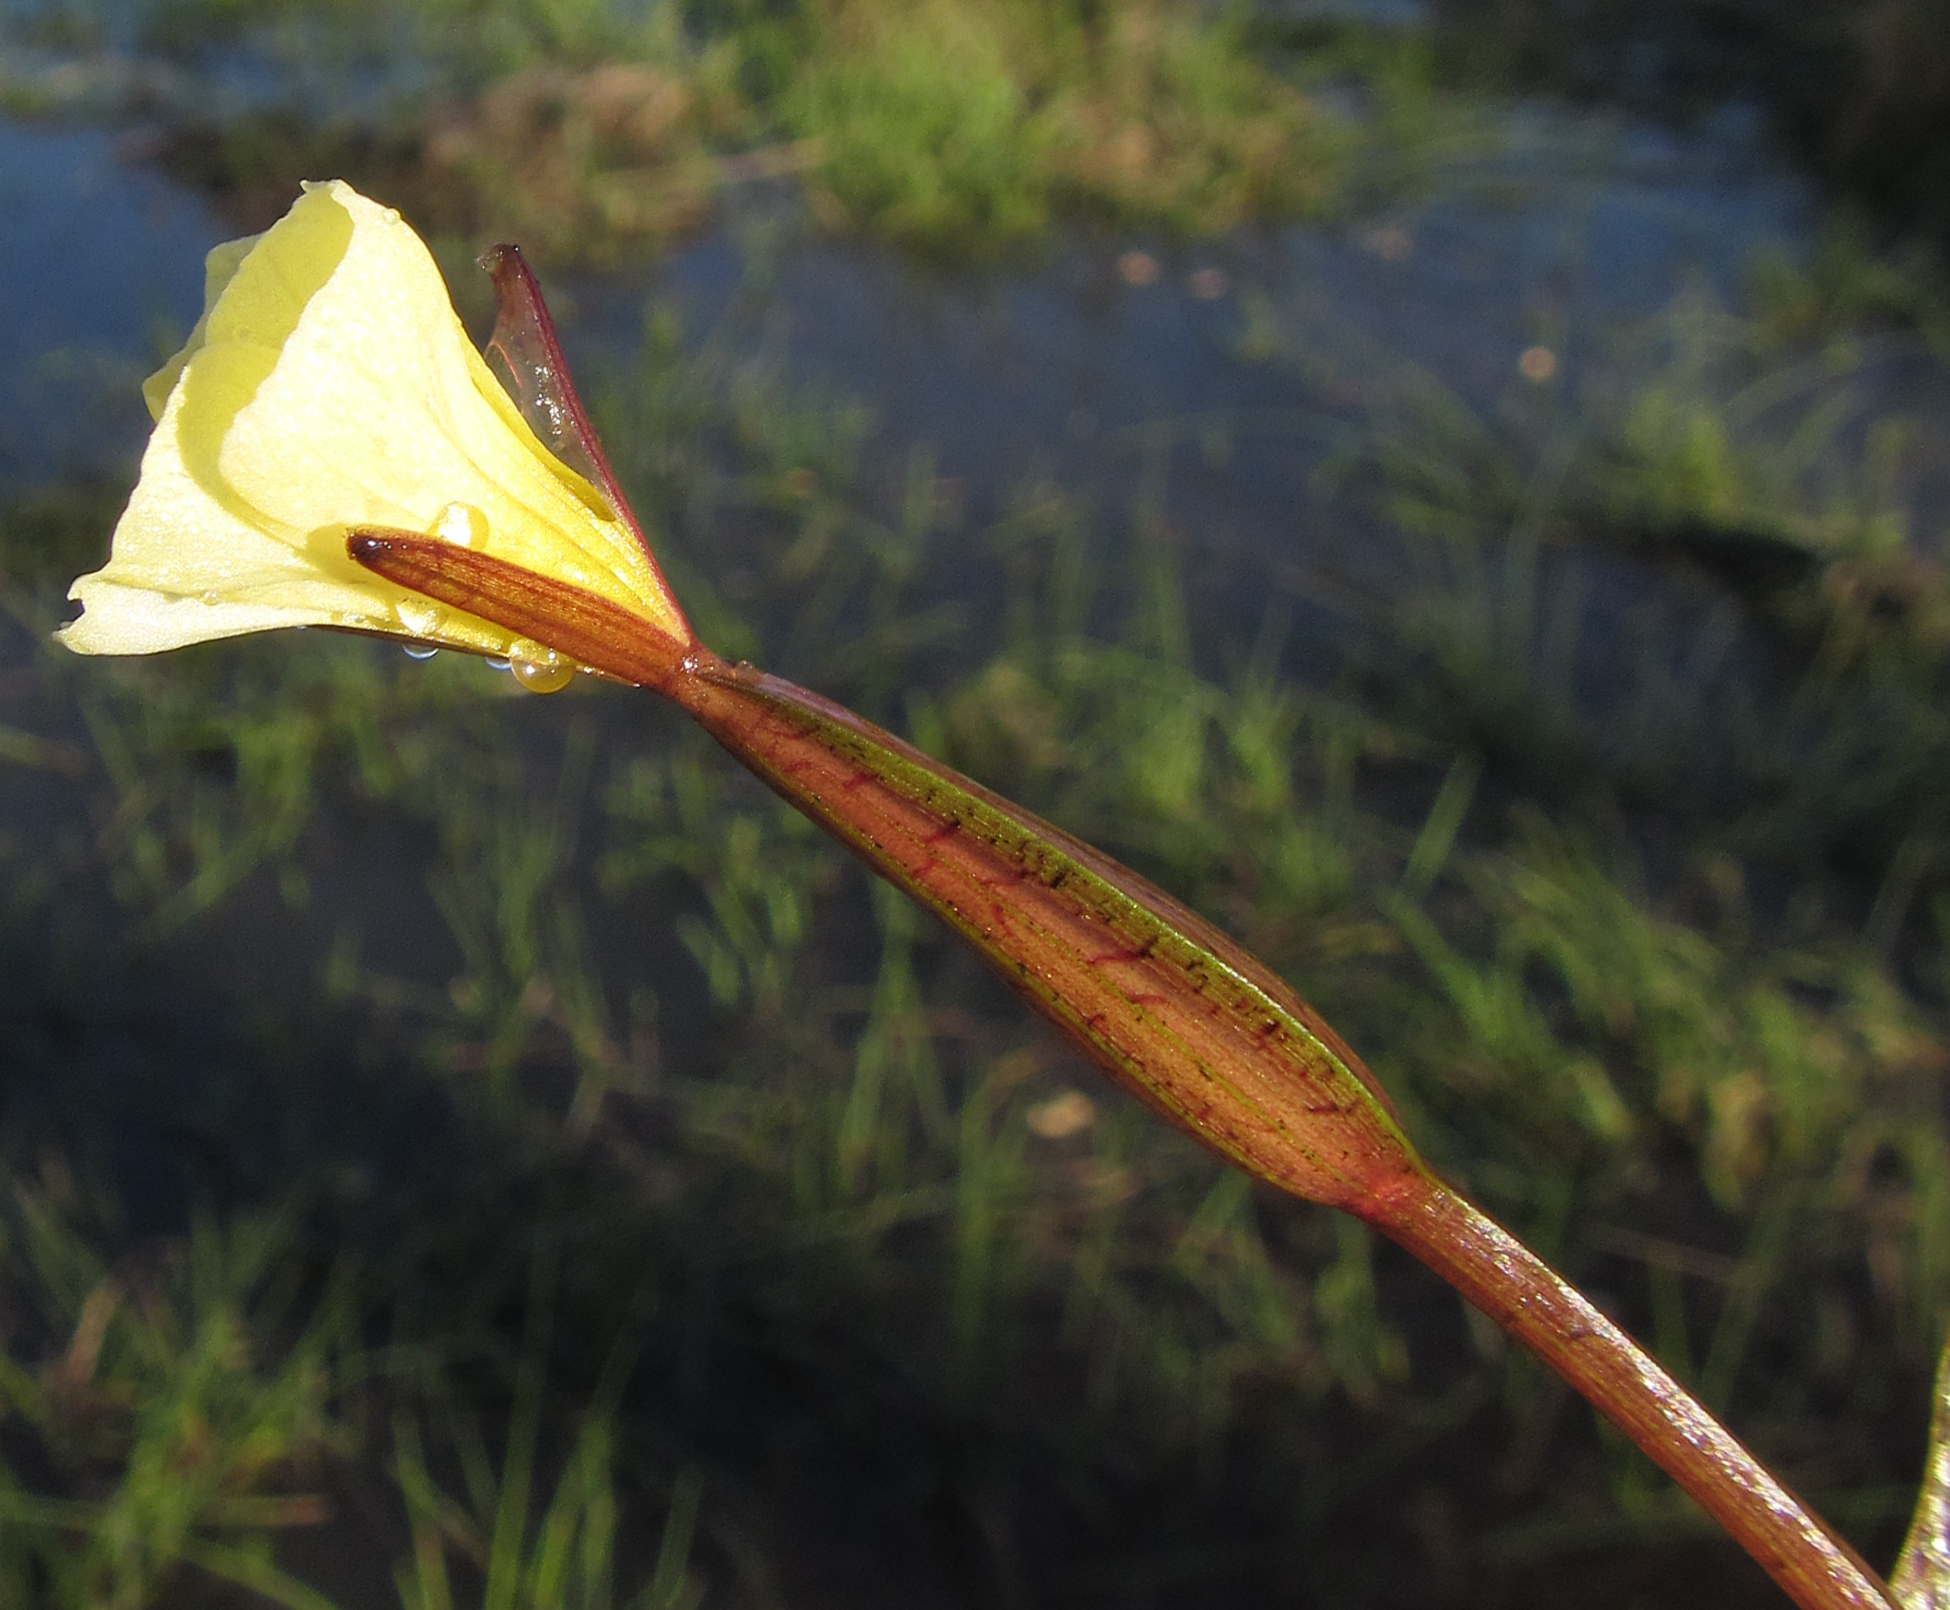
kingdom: Plantae
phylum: Tracheophyta
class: Liliopsida
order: Alismatales
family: Hydrocharitaceae
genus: Ottelia
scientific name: Ottelia ulvifolia
